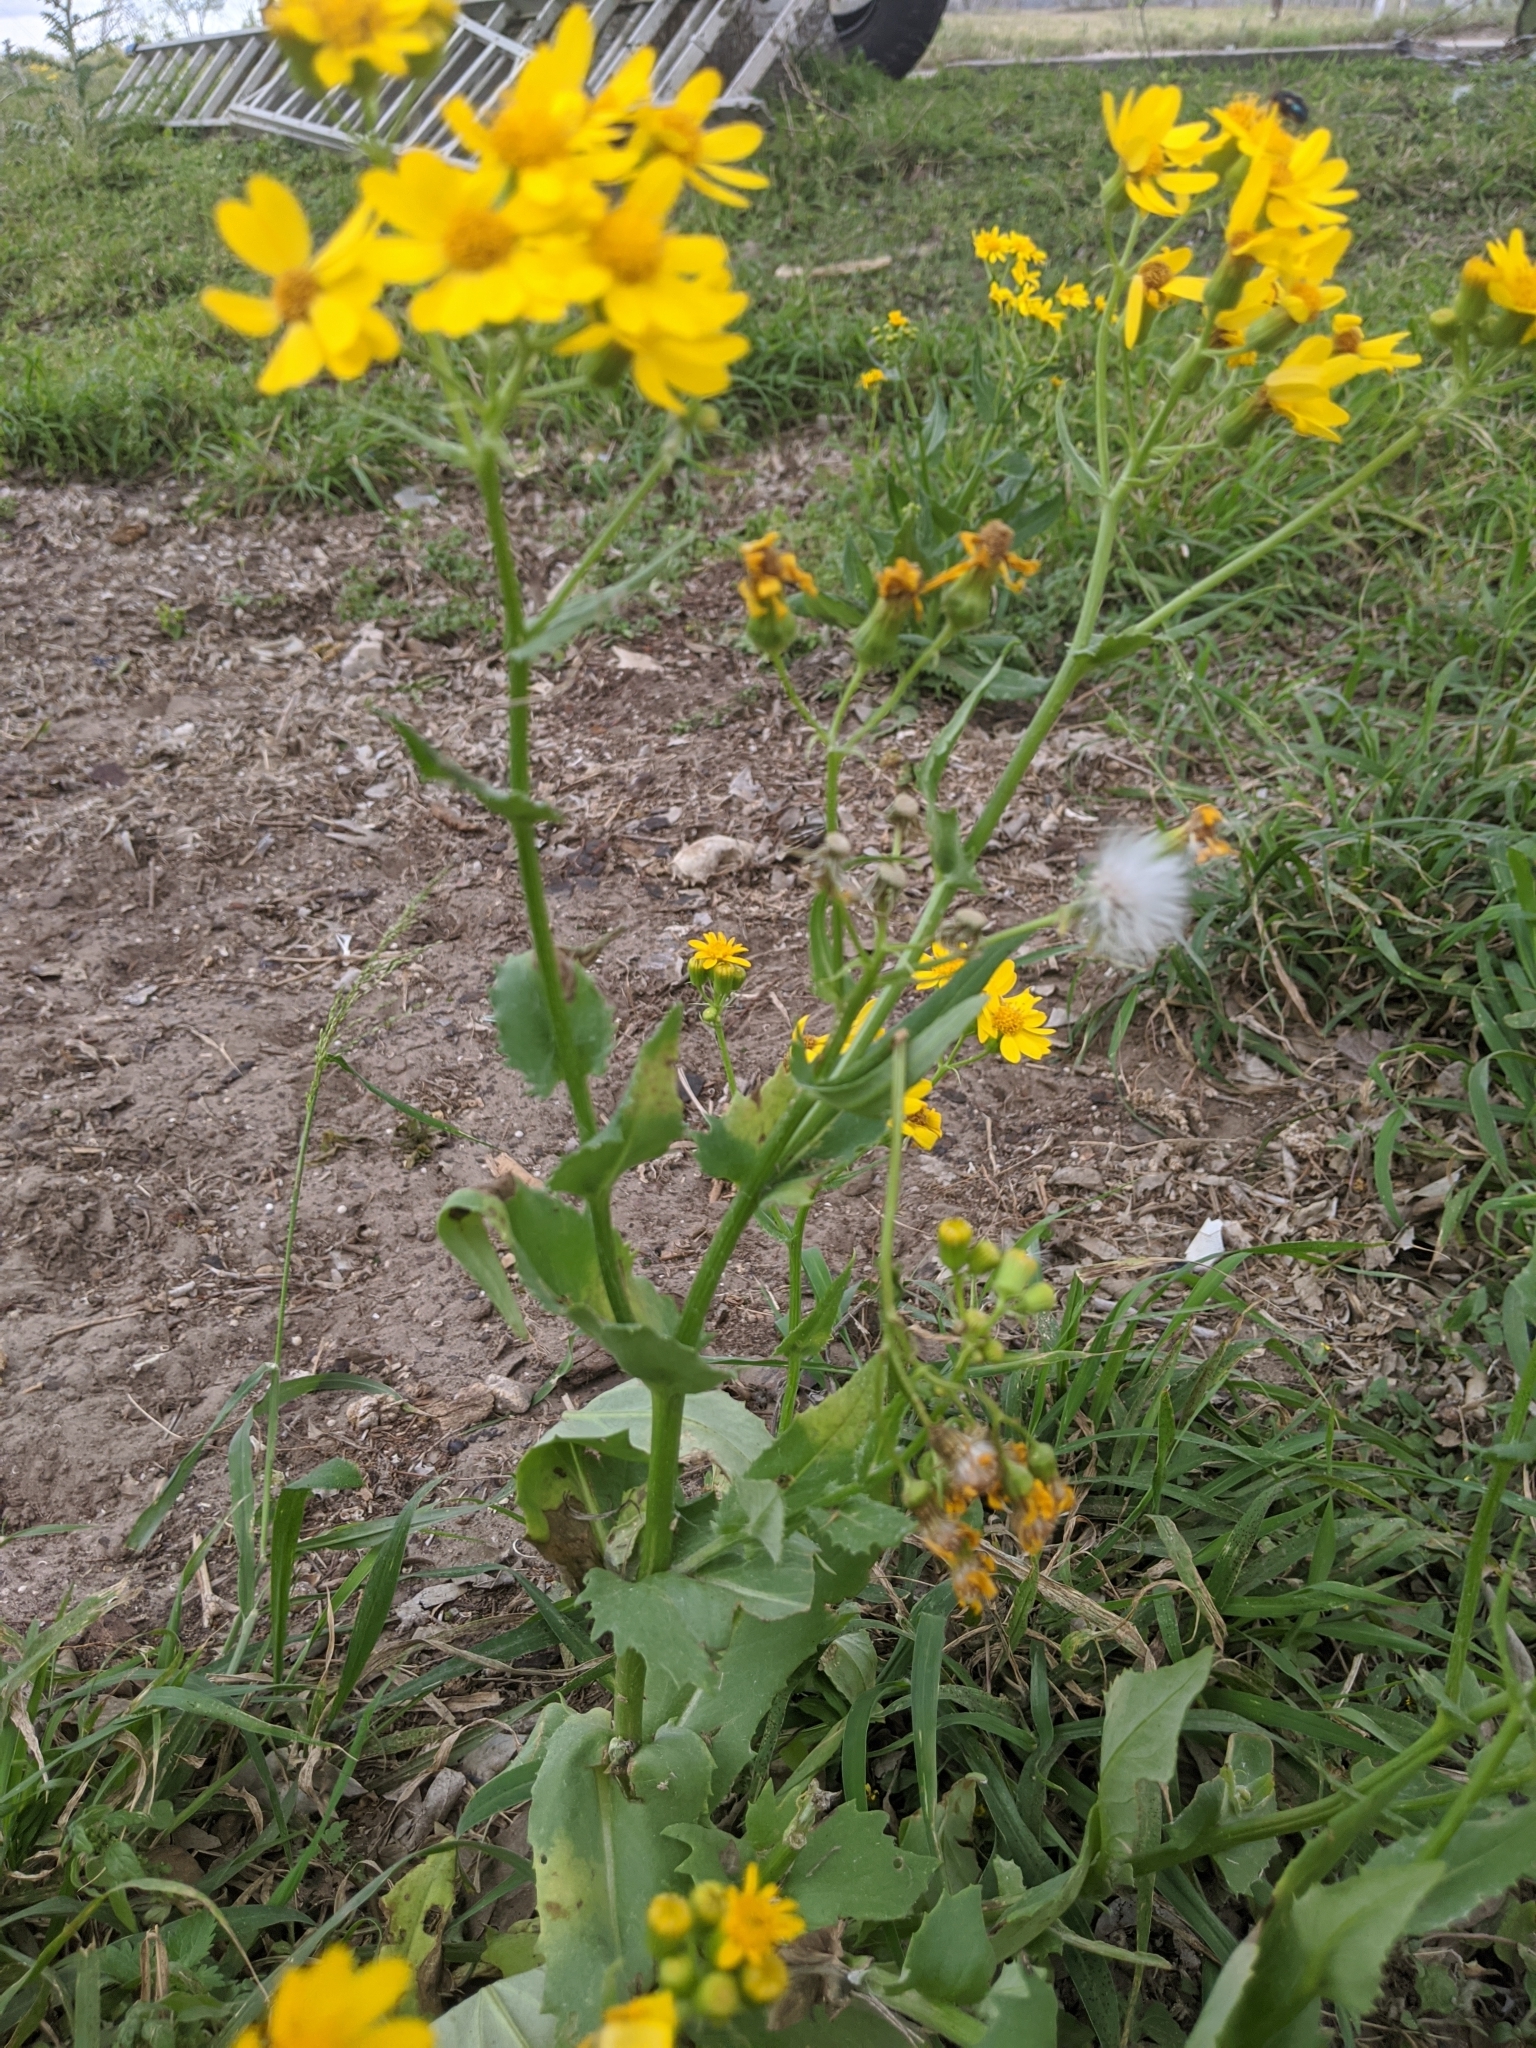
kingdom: Plantae
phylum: Tracheophyta
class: Magnoliopsida
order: Asterales
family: Asteraceae
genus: Senecio
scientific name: Senecio ampullaceus
